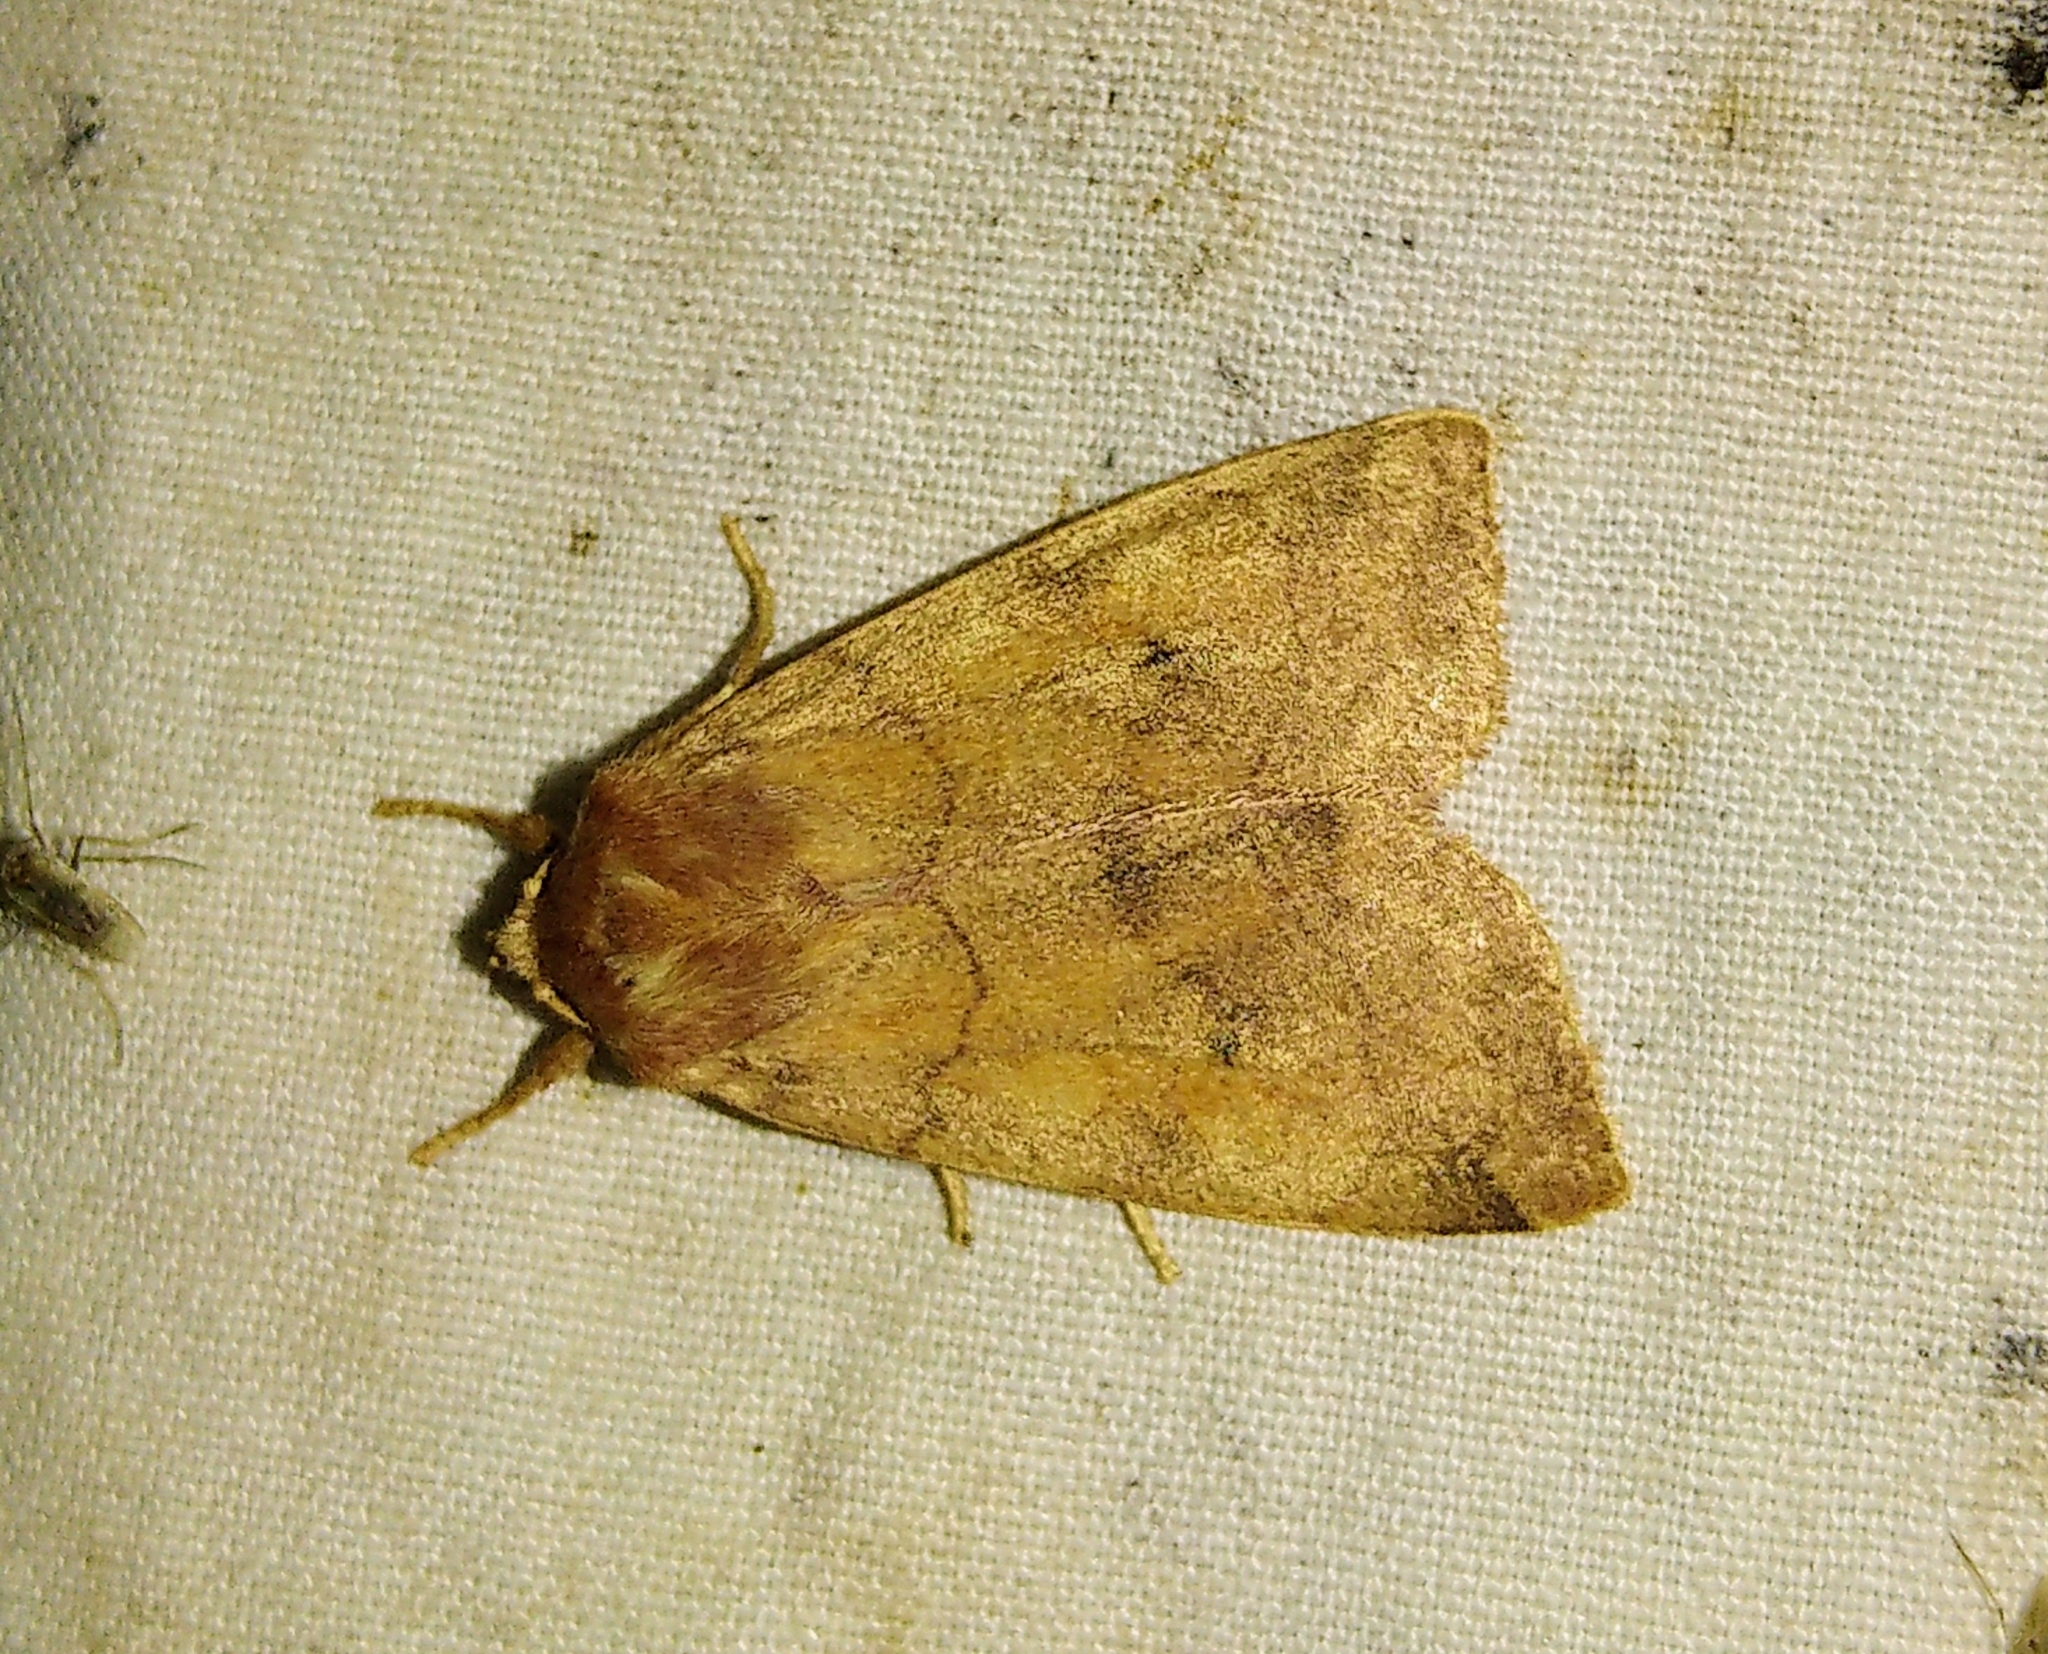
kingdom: Animalia
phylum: Arthropoda
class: Insecta
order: Lepidoptera
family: Noctuidae
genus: Enargia
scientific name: Enargia infumata
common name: Smoked sallow
